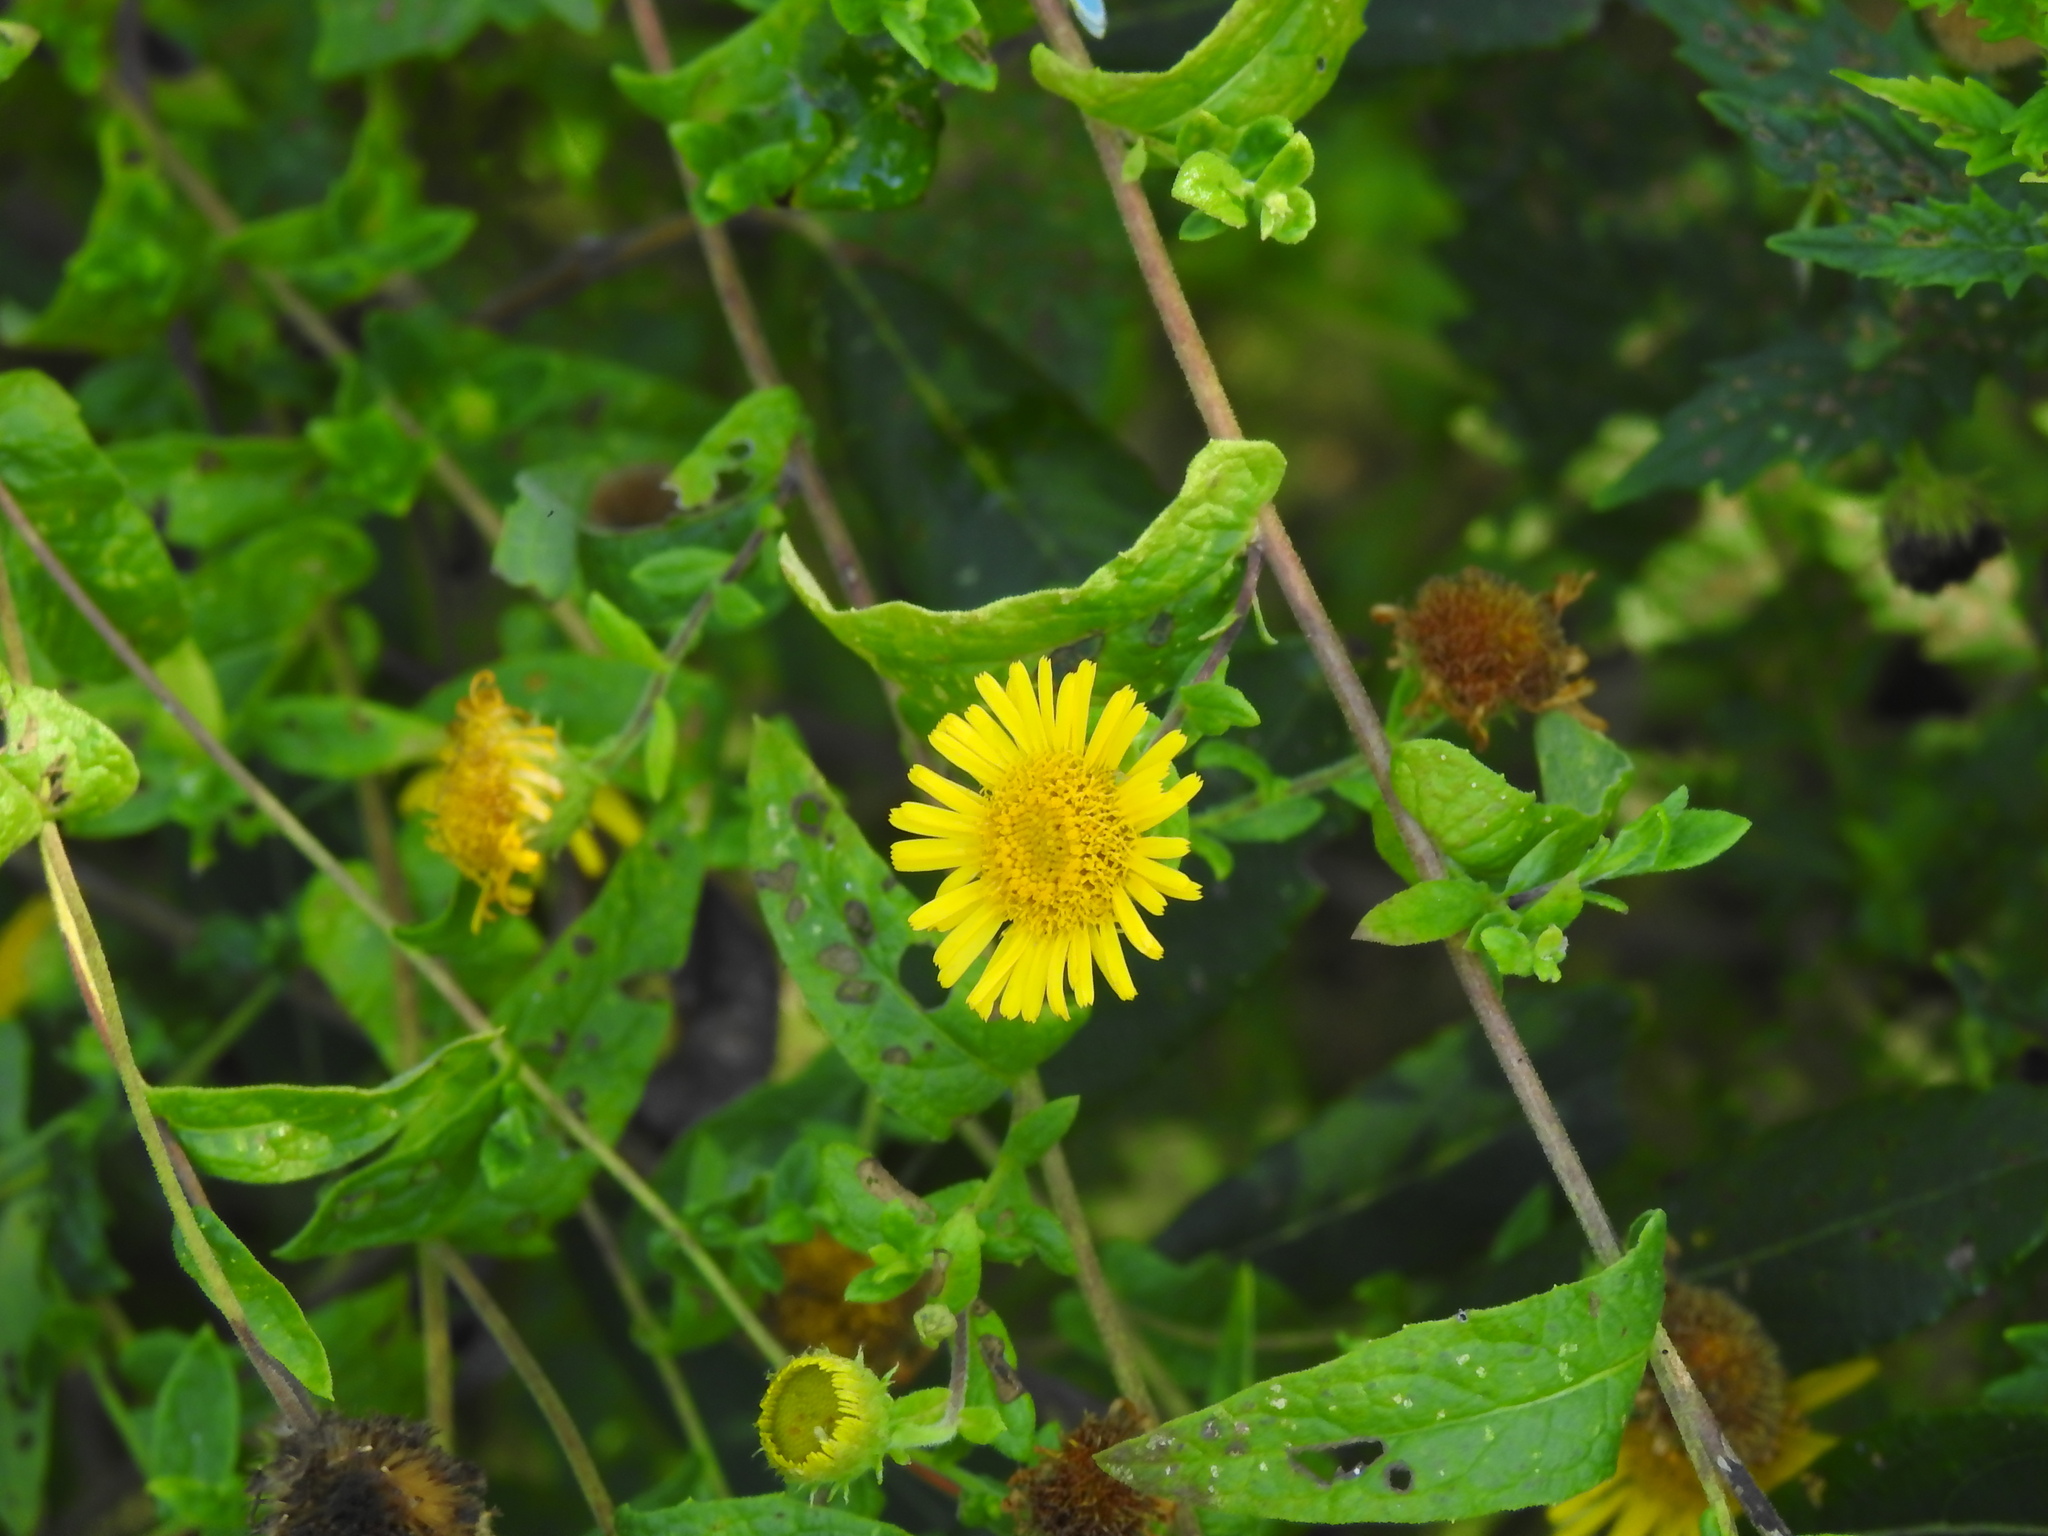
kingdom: Plantae
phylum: Tracheophyta
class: Magnoliopsida
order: Asterales
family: Asteraceae
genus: Pulicaria
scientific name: Pulicaria dysenterica
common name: Common fleabane
